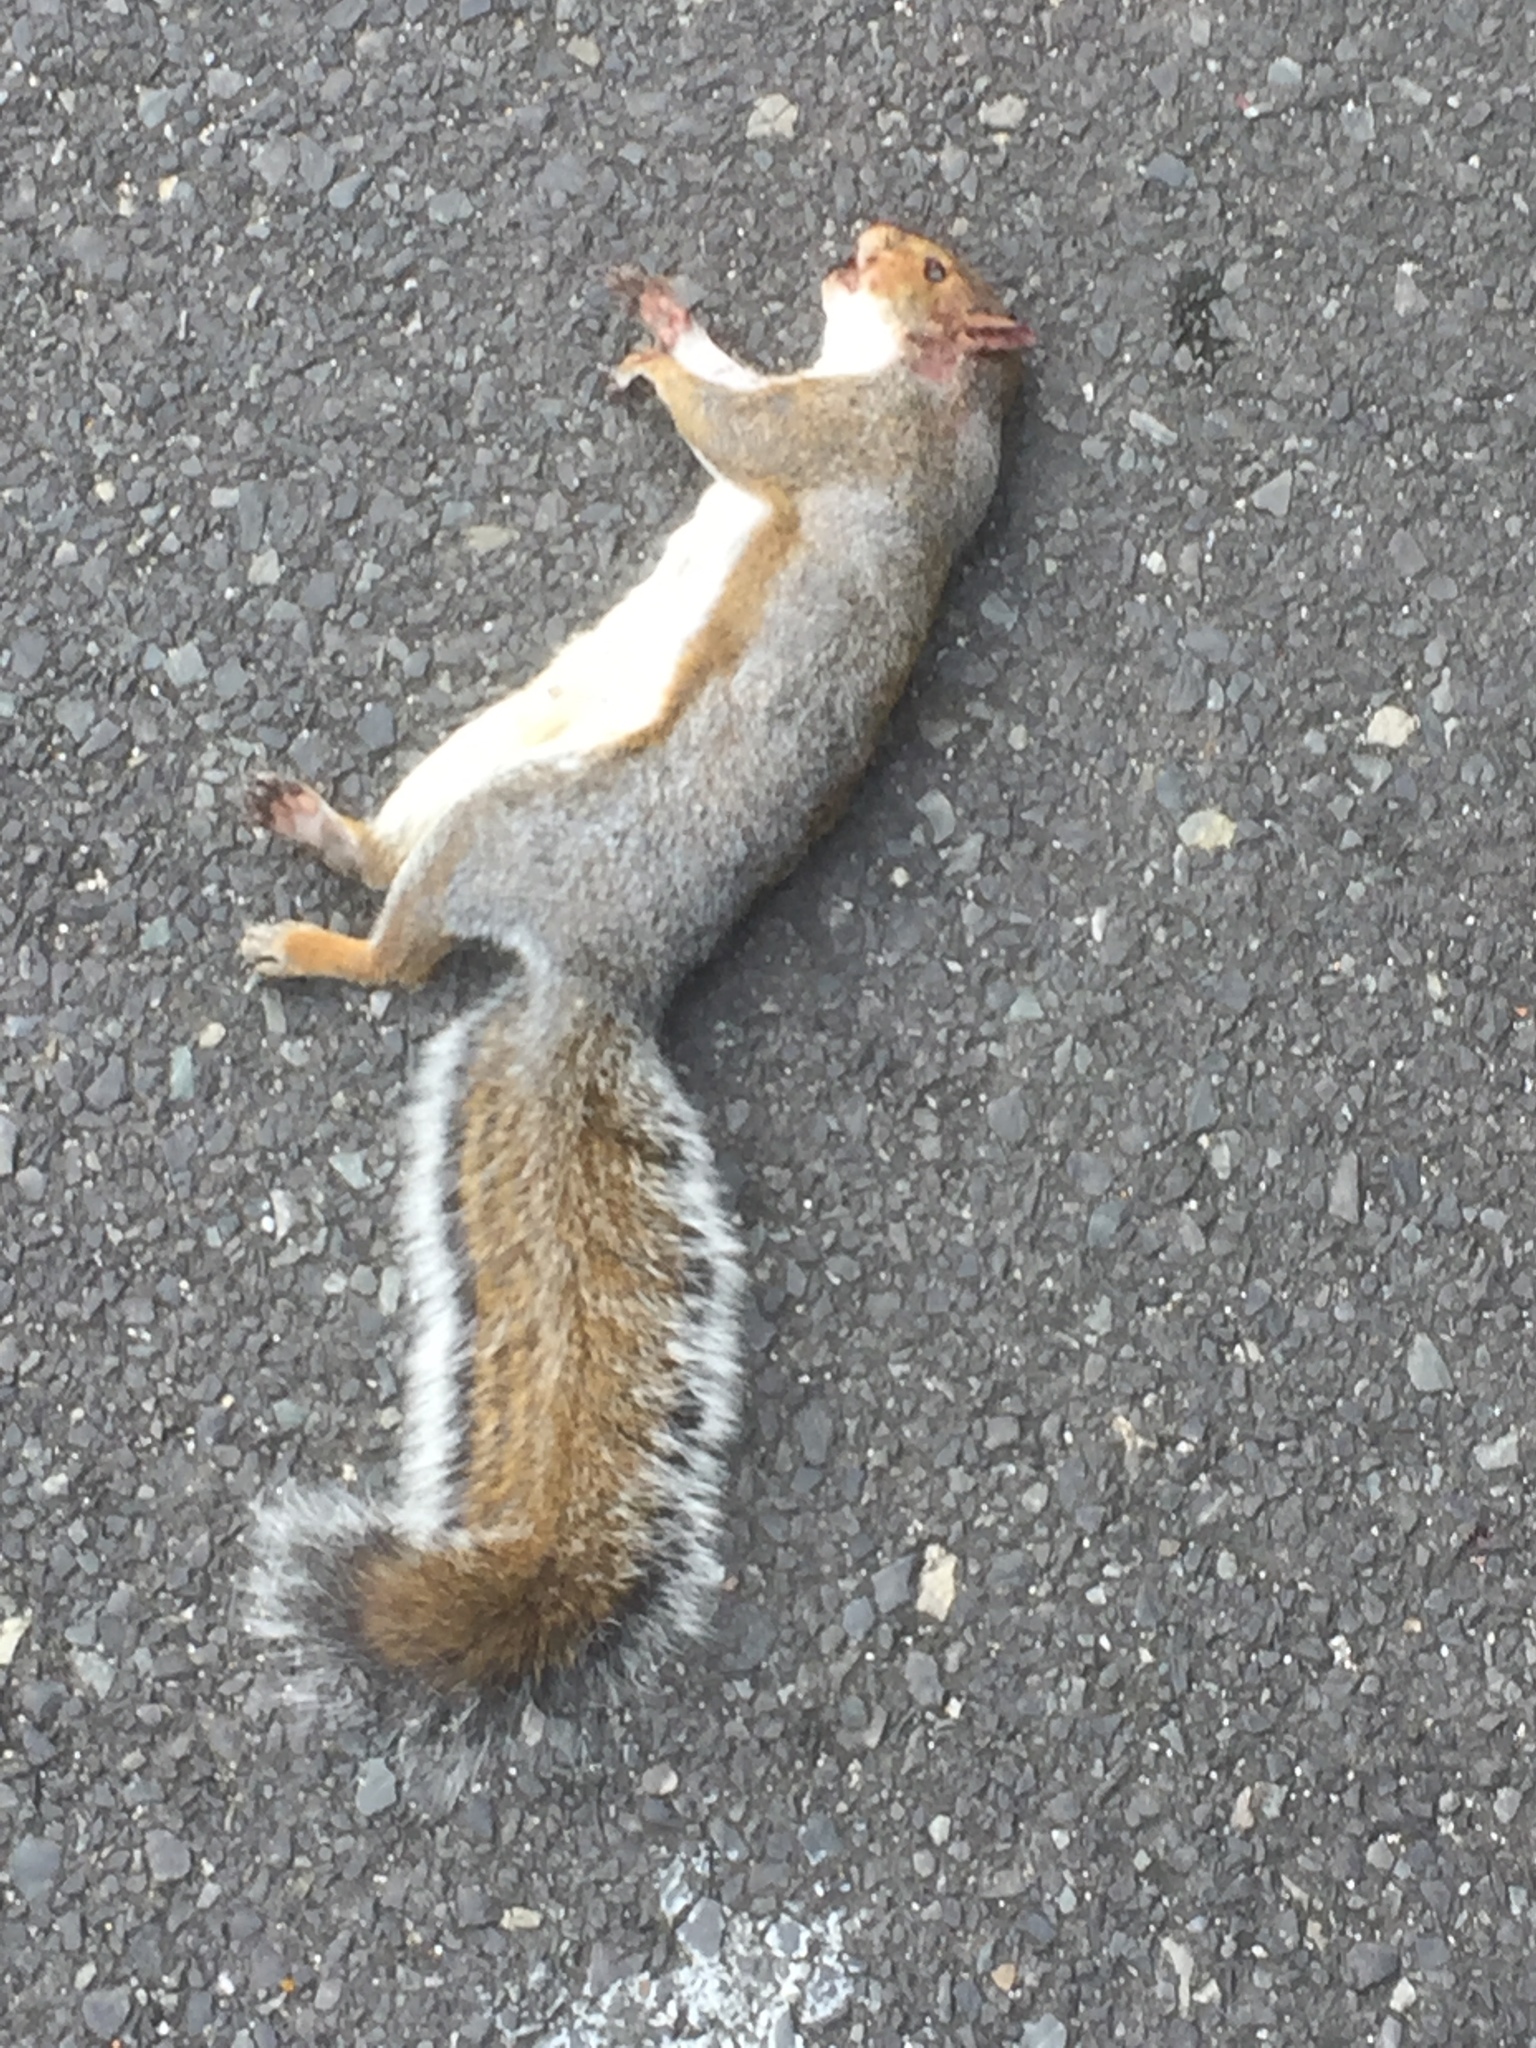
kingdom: Animalia
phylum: Chordata
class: Mammalia
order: Rodentia
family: Sciuridae
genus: Sciurus
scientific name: Sciurus carolinensis
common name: Eastern gray squirrel
